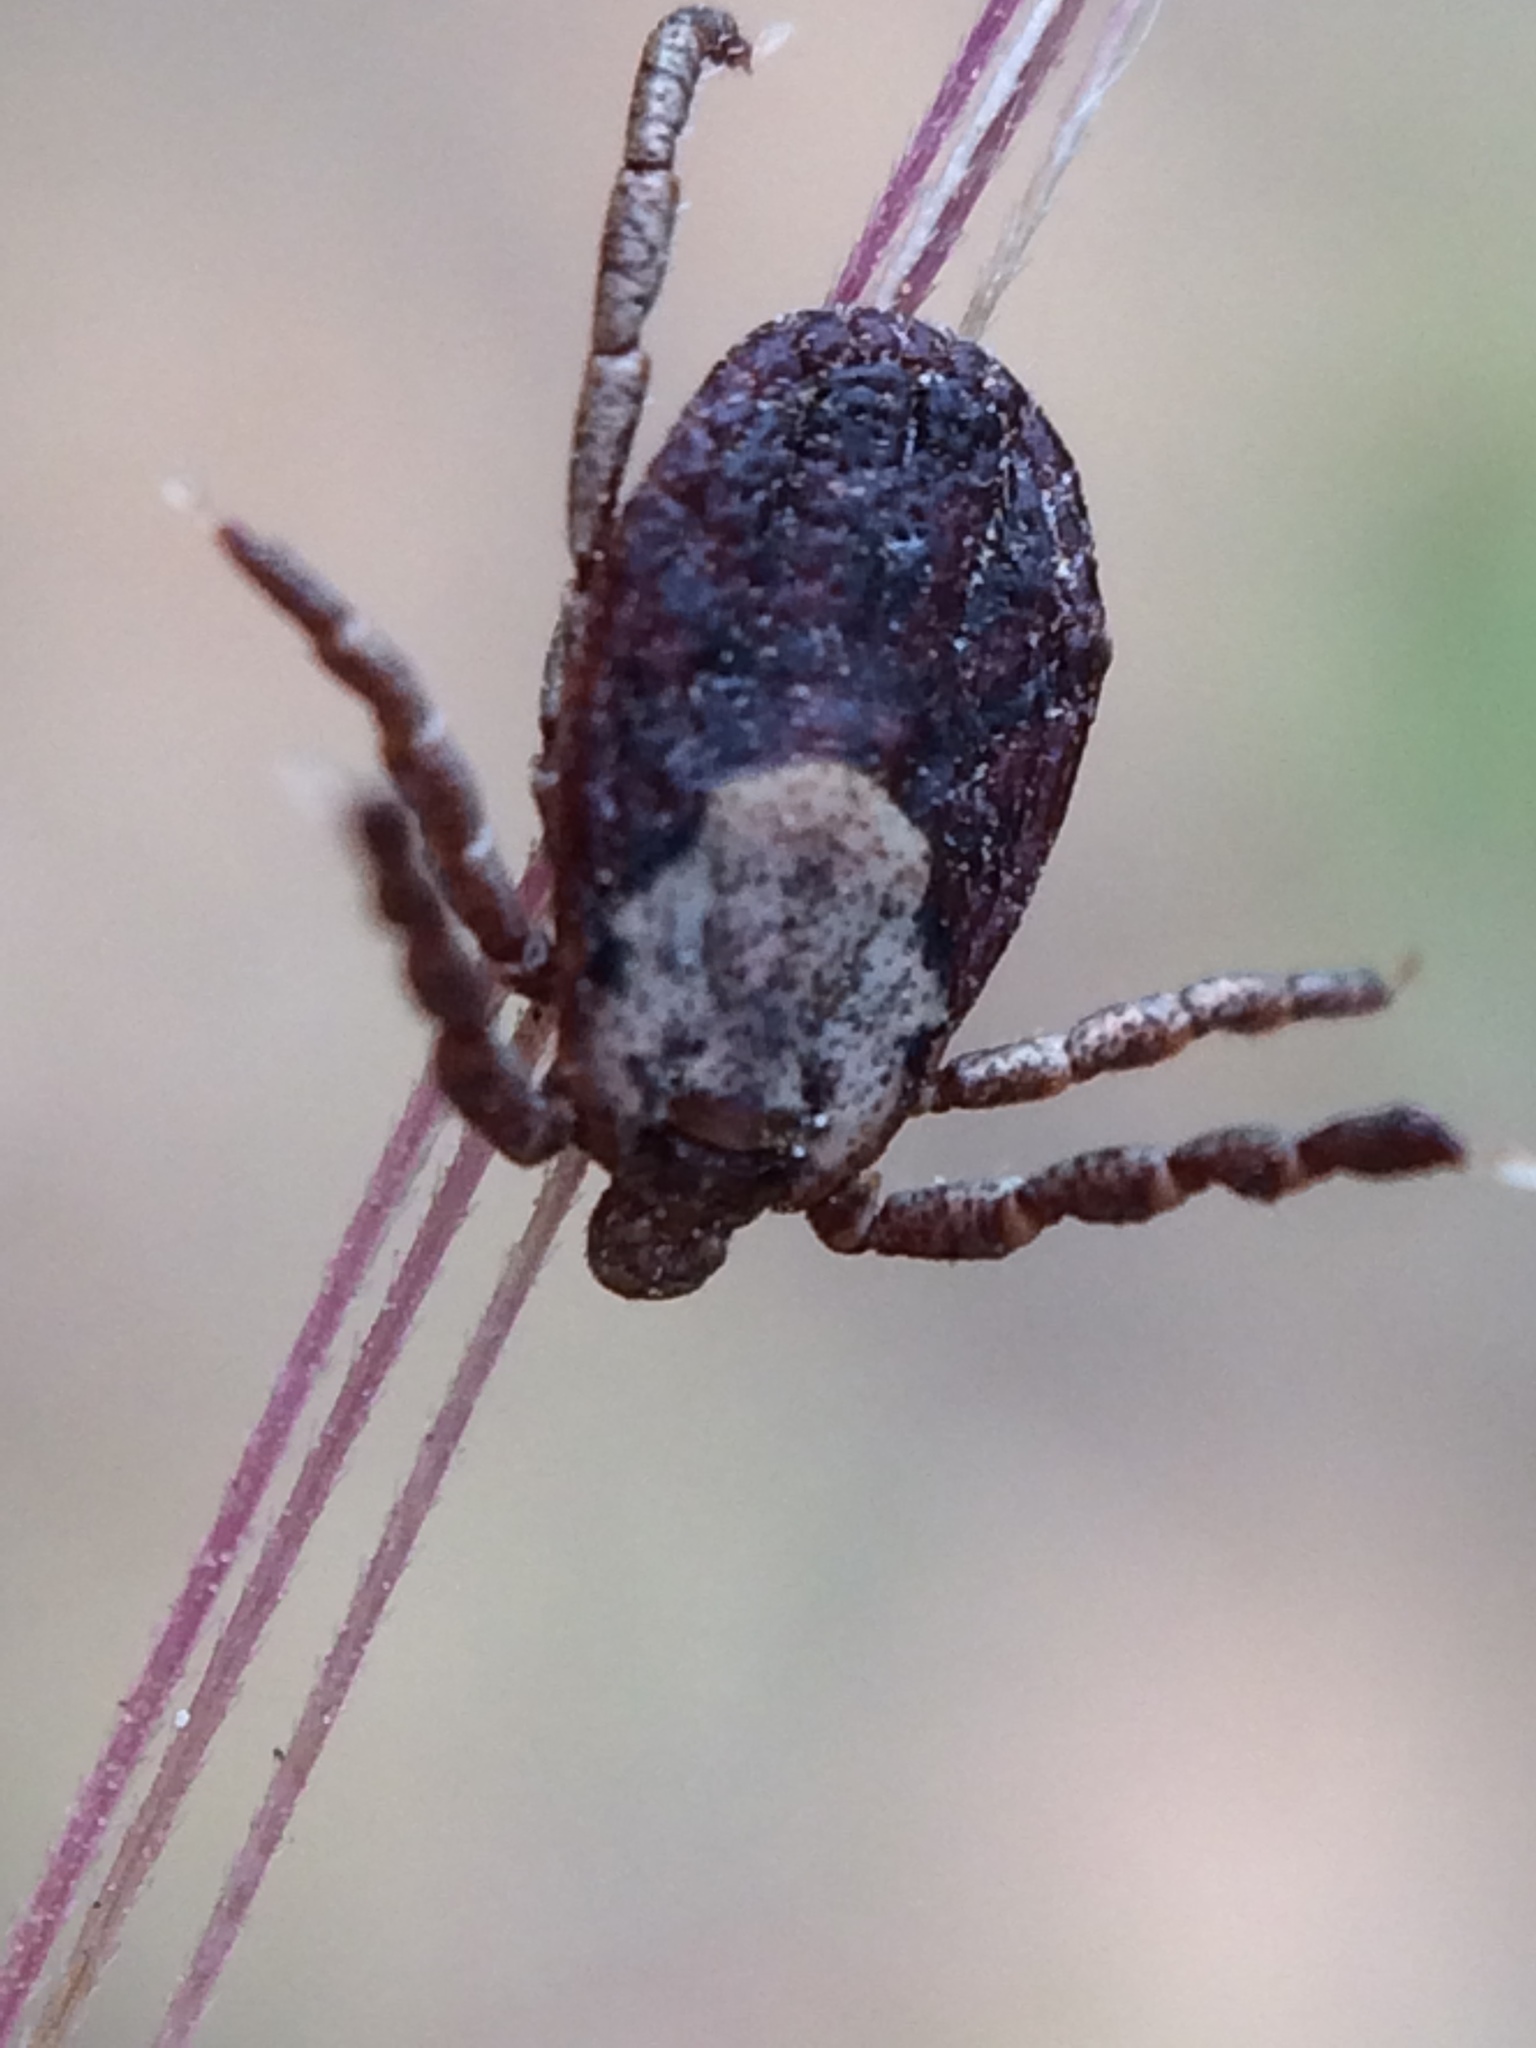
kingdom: Animalia
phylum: Arthropoda
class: Arachnida
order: Ixodida
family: Ixodidae
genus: Dermacentor
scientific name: Dermacentor occidentalis
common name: Net tick
